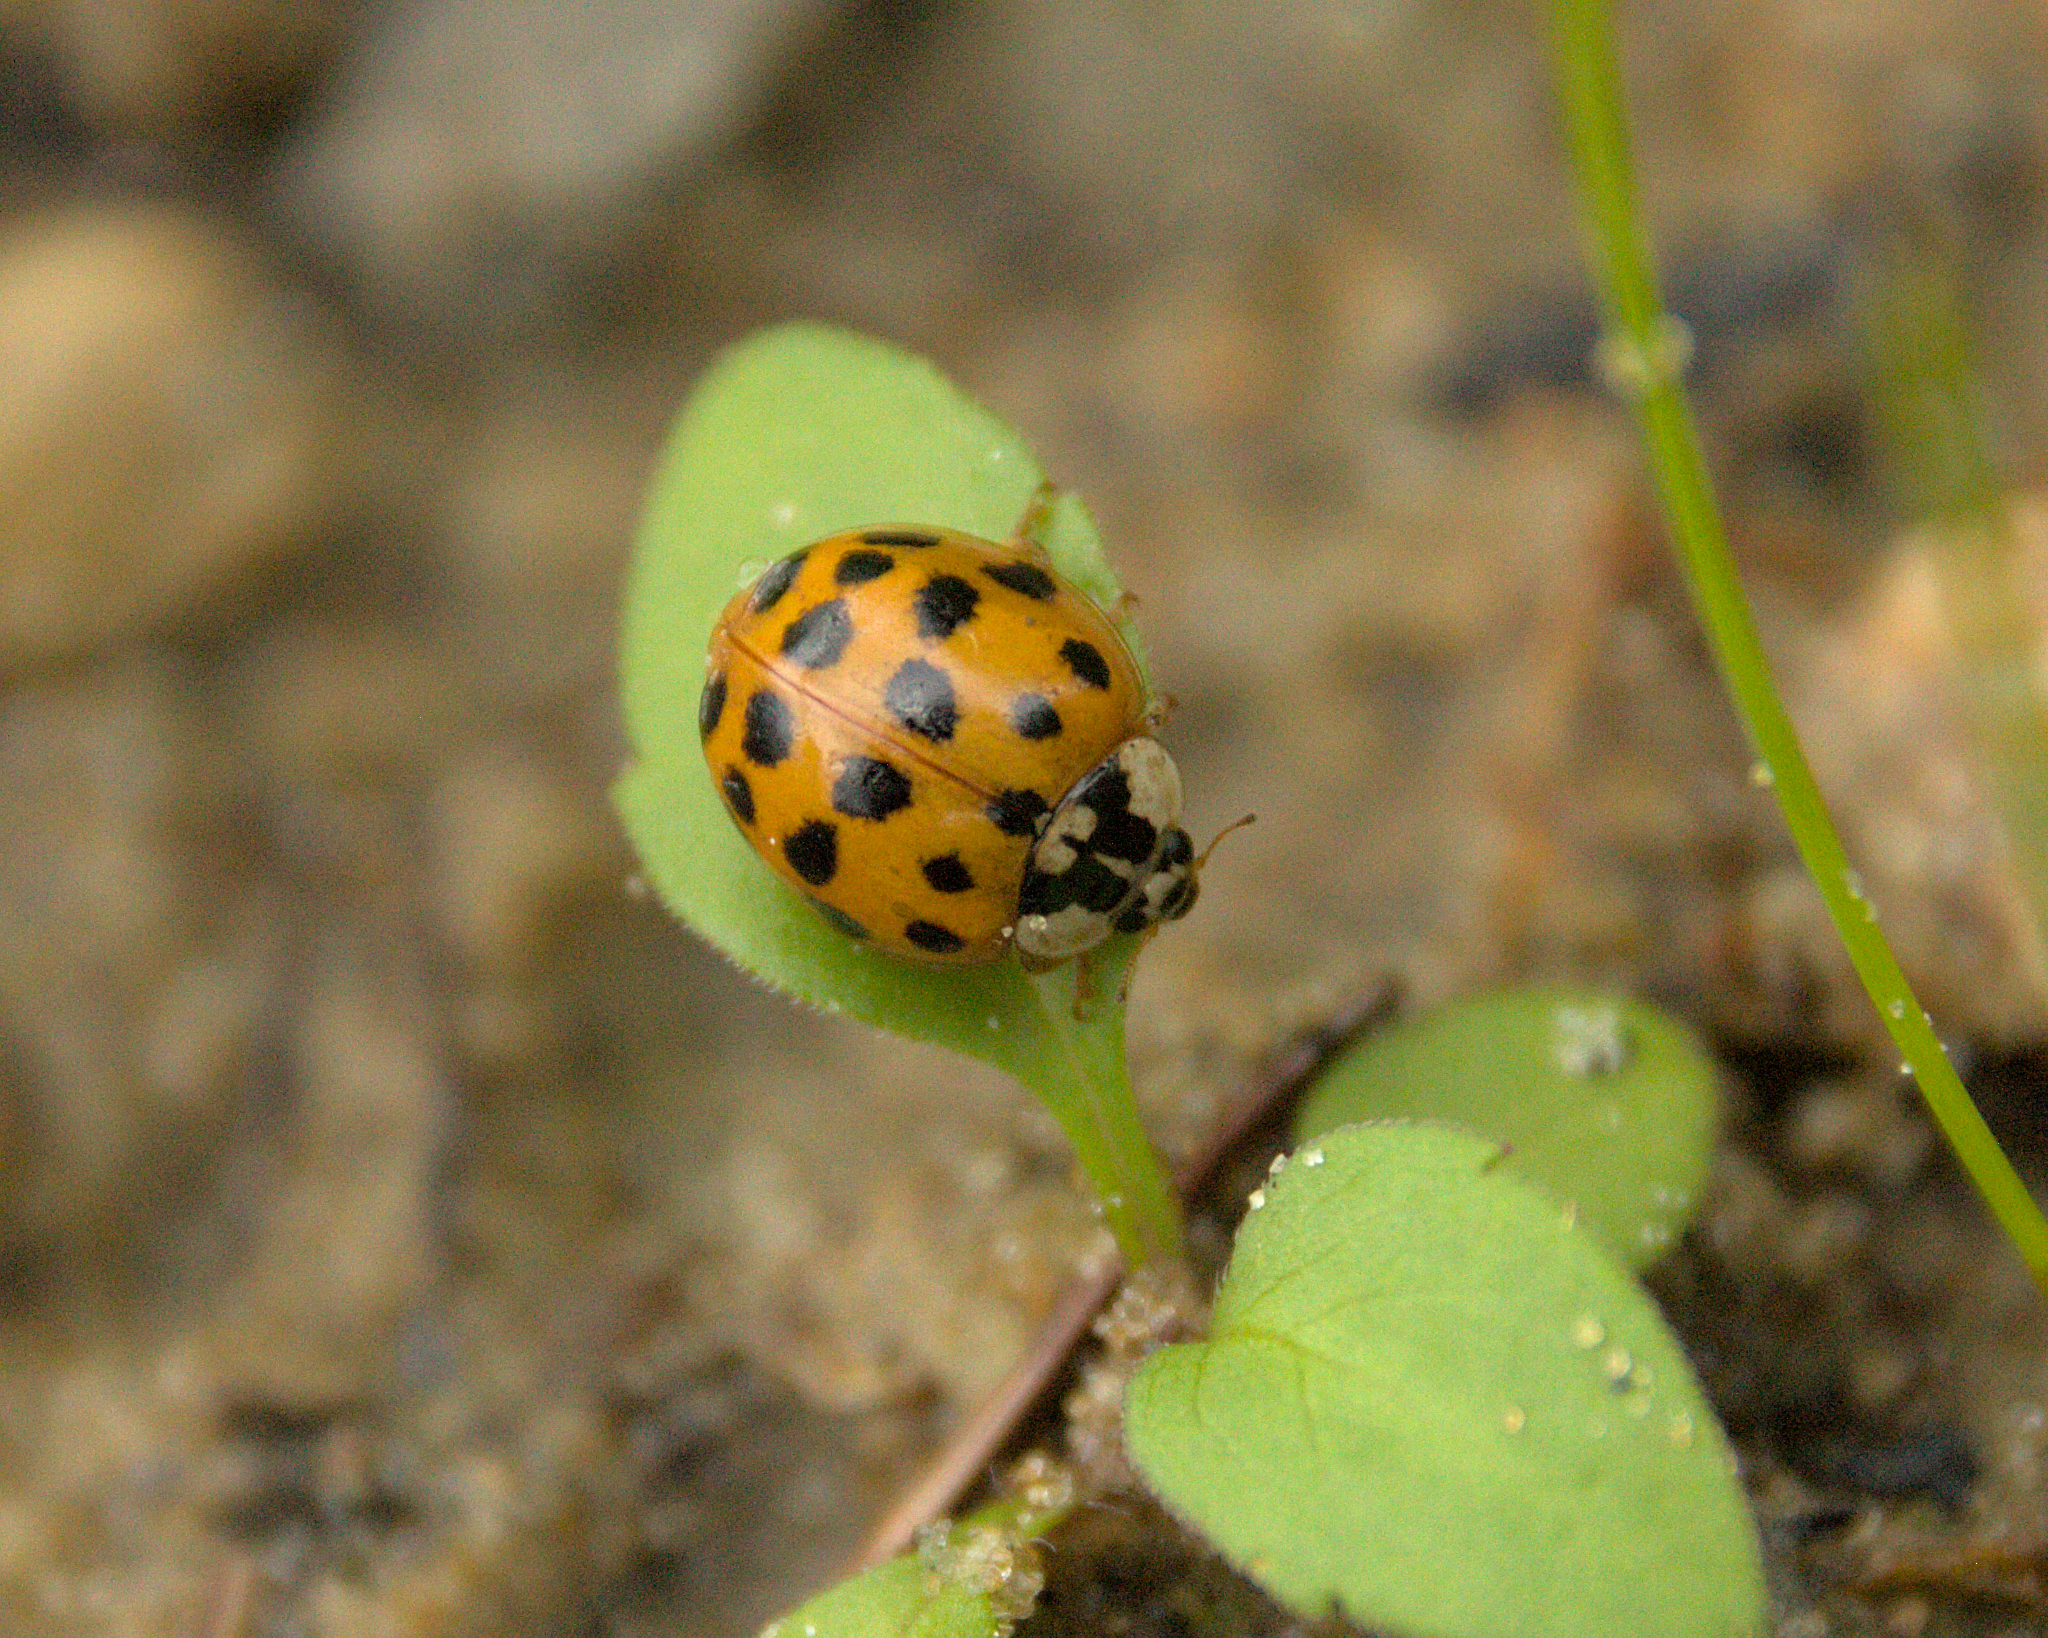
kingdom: Animalia
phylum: Arthropoda
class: Insecta
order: Coleoptera
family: Coccinellidae
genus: Harmonia
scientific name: Harmonia axyridis
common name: Harlequin ladybird
